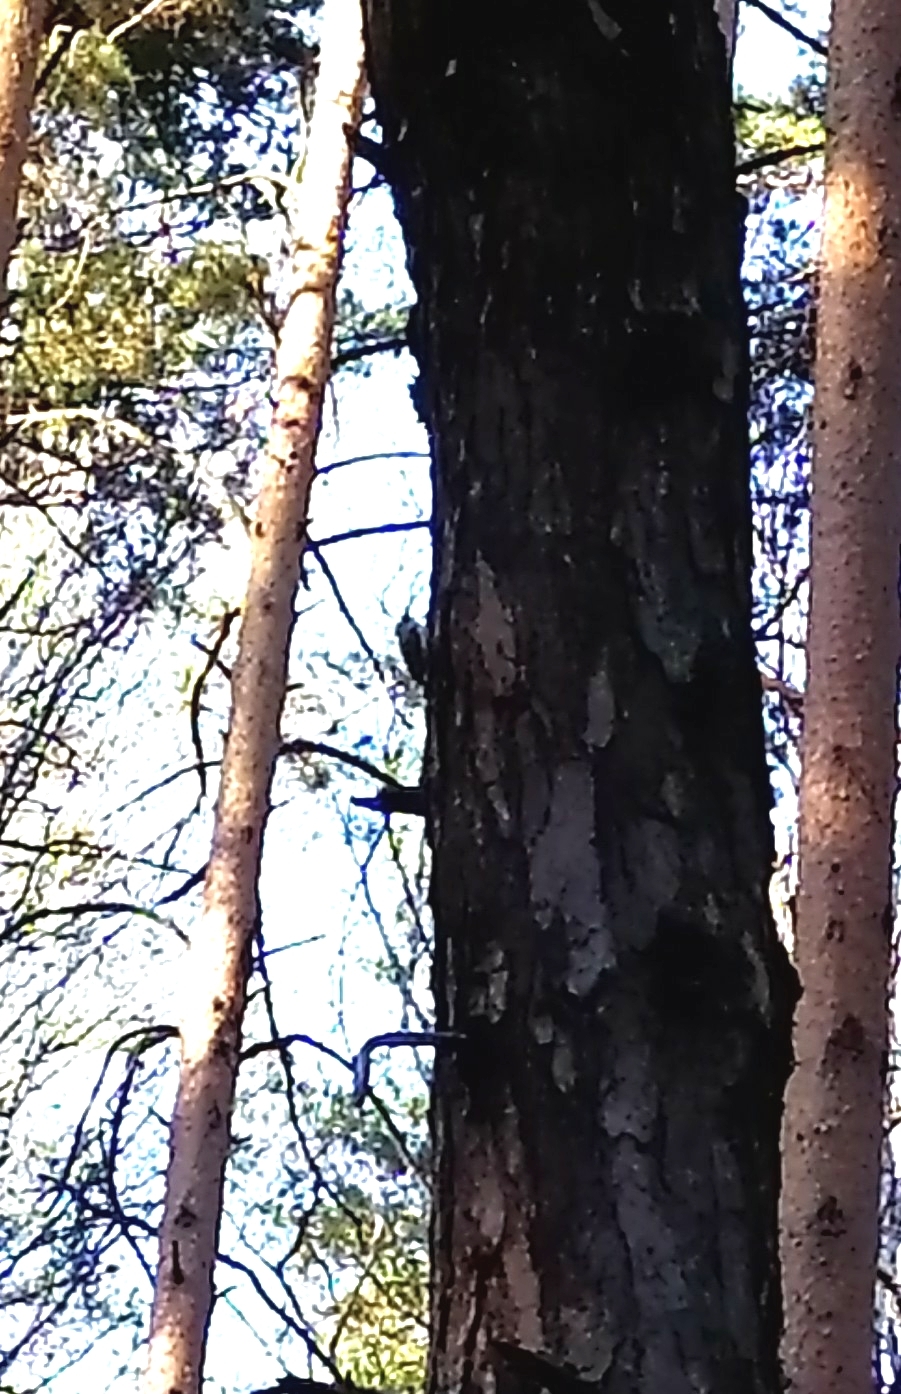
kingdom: Animalia
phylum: Chordata
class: Aves
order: Passeriformes
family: Certhiidae
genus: Certhia
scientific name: Certhia familiaris
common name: Eurasian treecreeper
